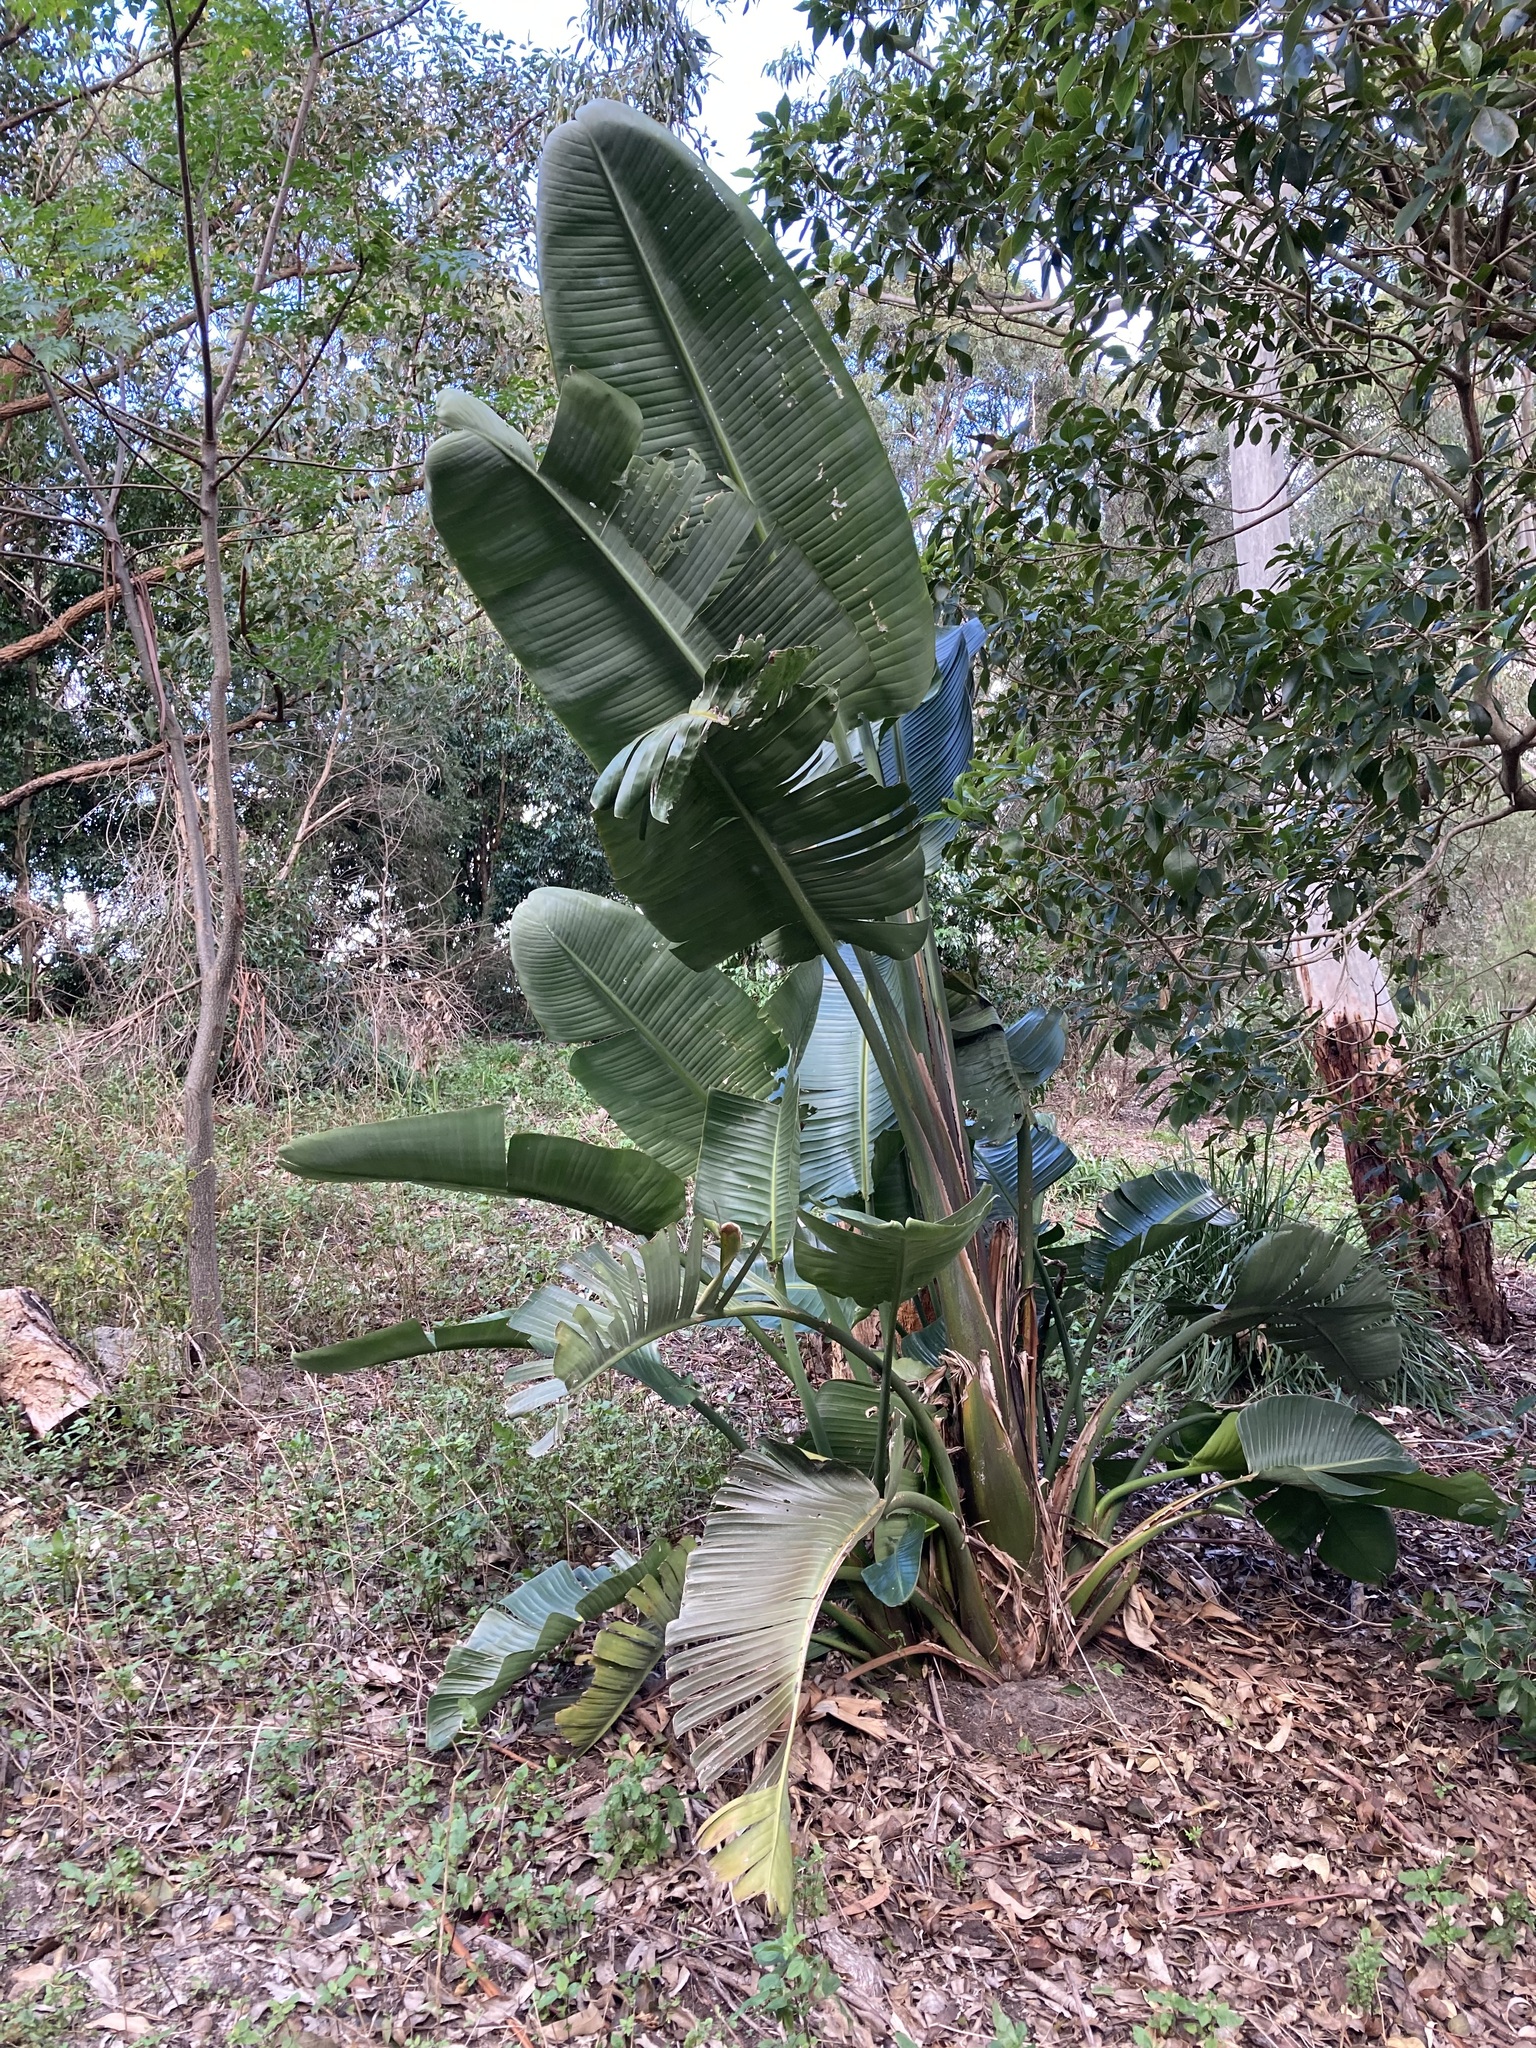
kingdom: Plantae
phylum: Tracheophyta
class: Liliopsida
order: Zingiberales
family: Strelitziaceae
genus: Strelitzia
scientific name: Strelitzia nicolai
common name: Bird-of-paradise tree
